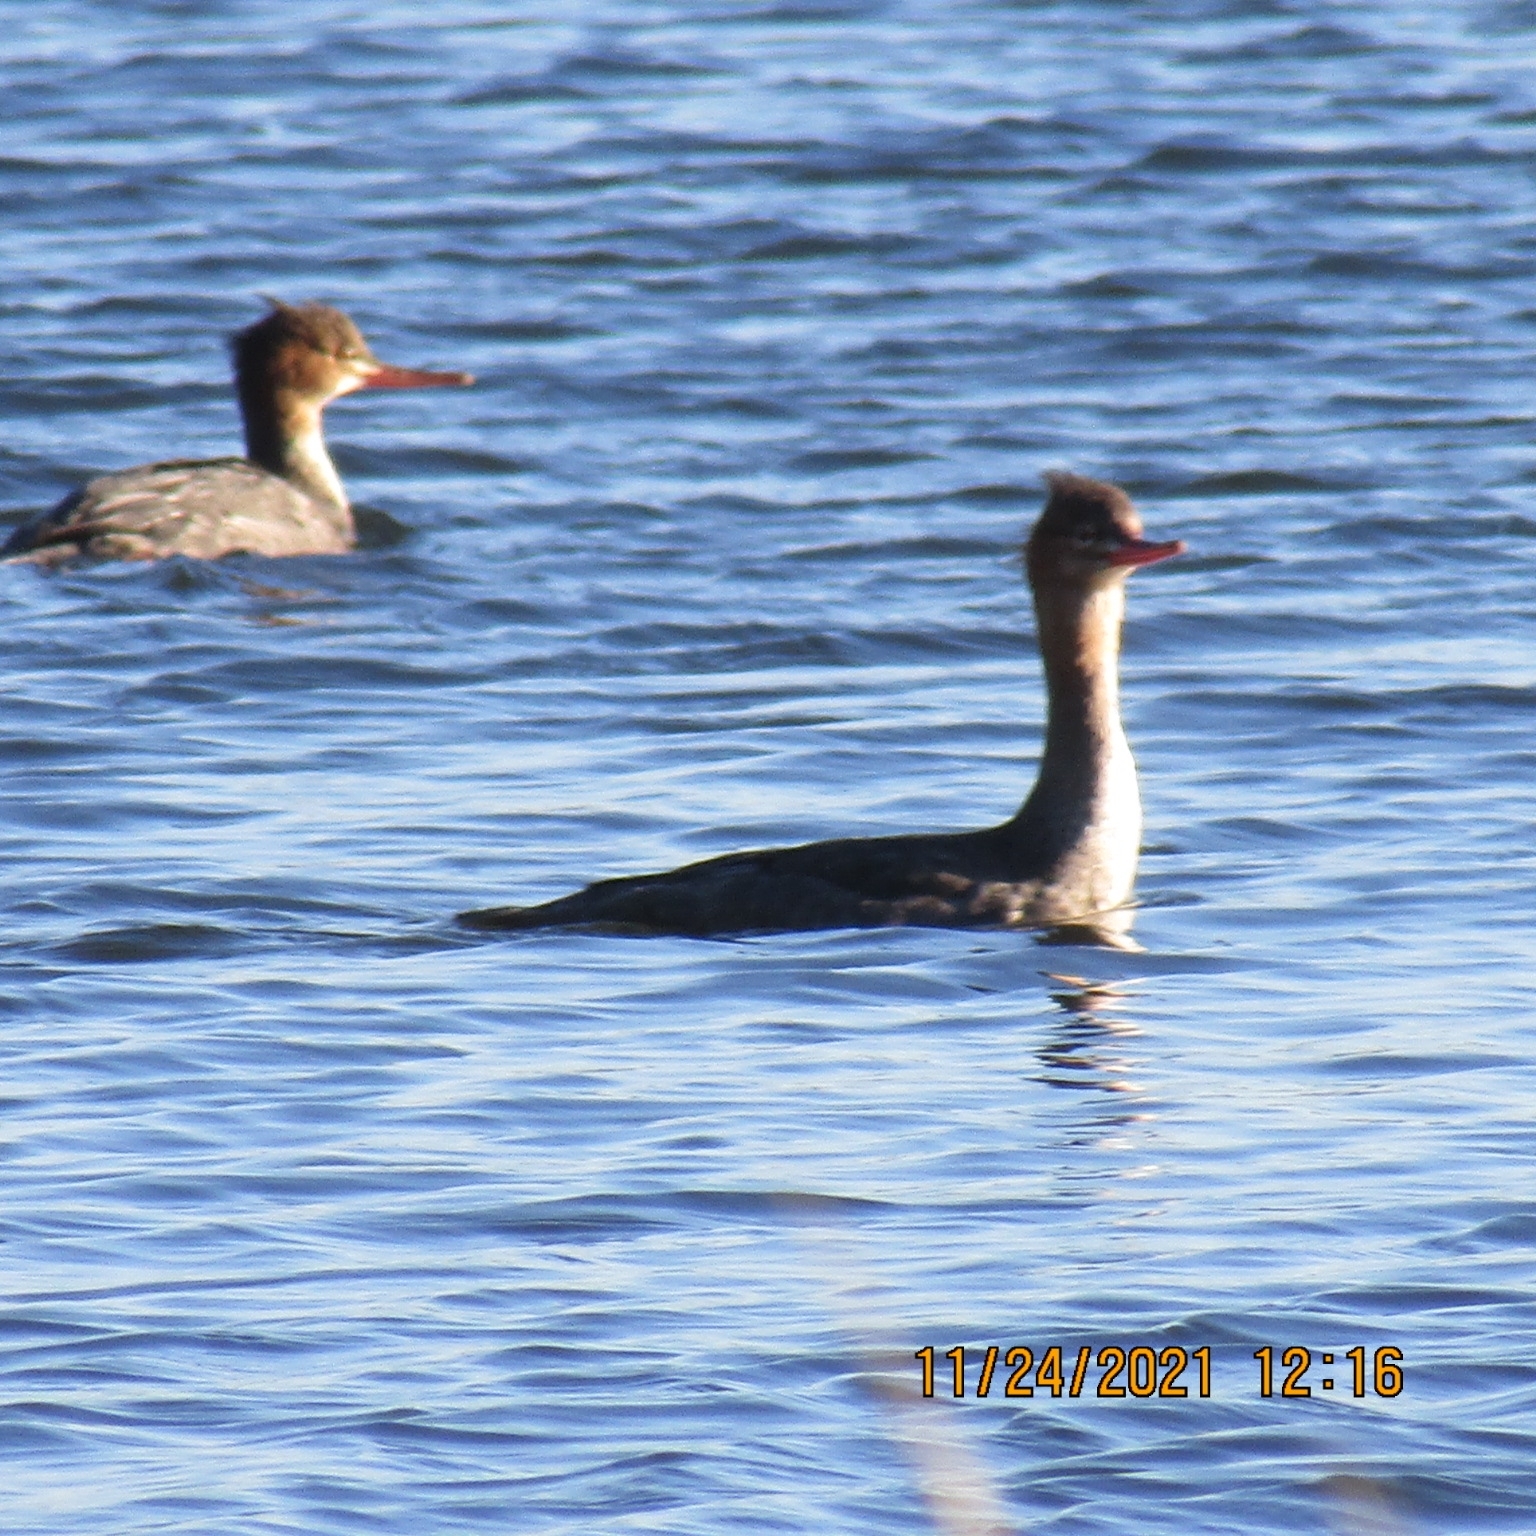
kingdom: Animalia
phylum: Chordata
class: Aves
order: Anseriformes
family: Anatidae
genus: Mergus
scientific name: Mergus serrator
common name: Red-breasted merganser
